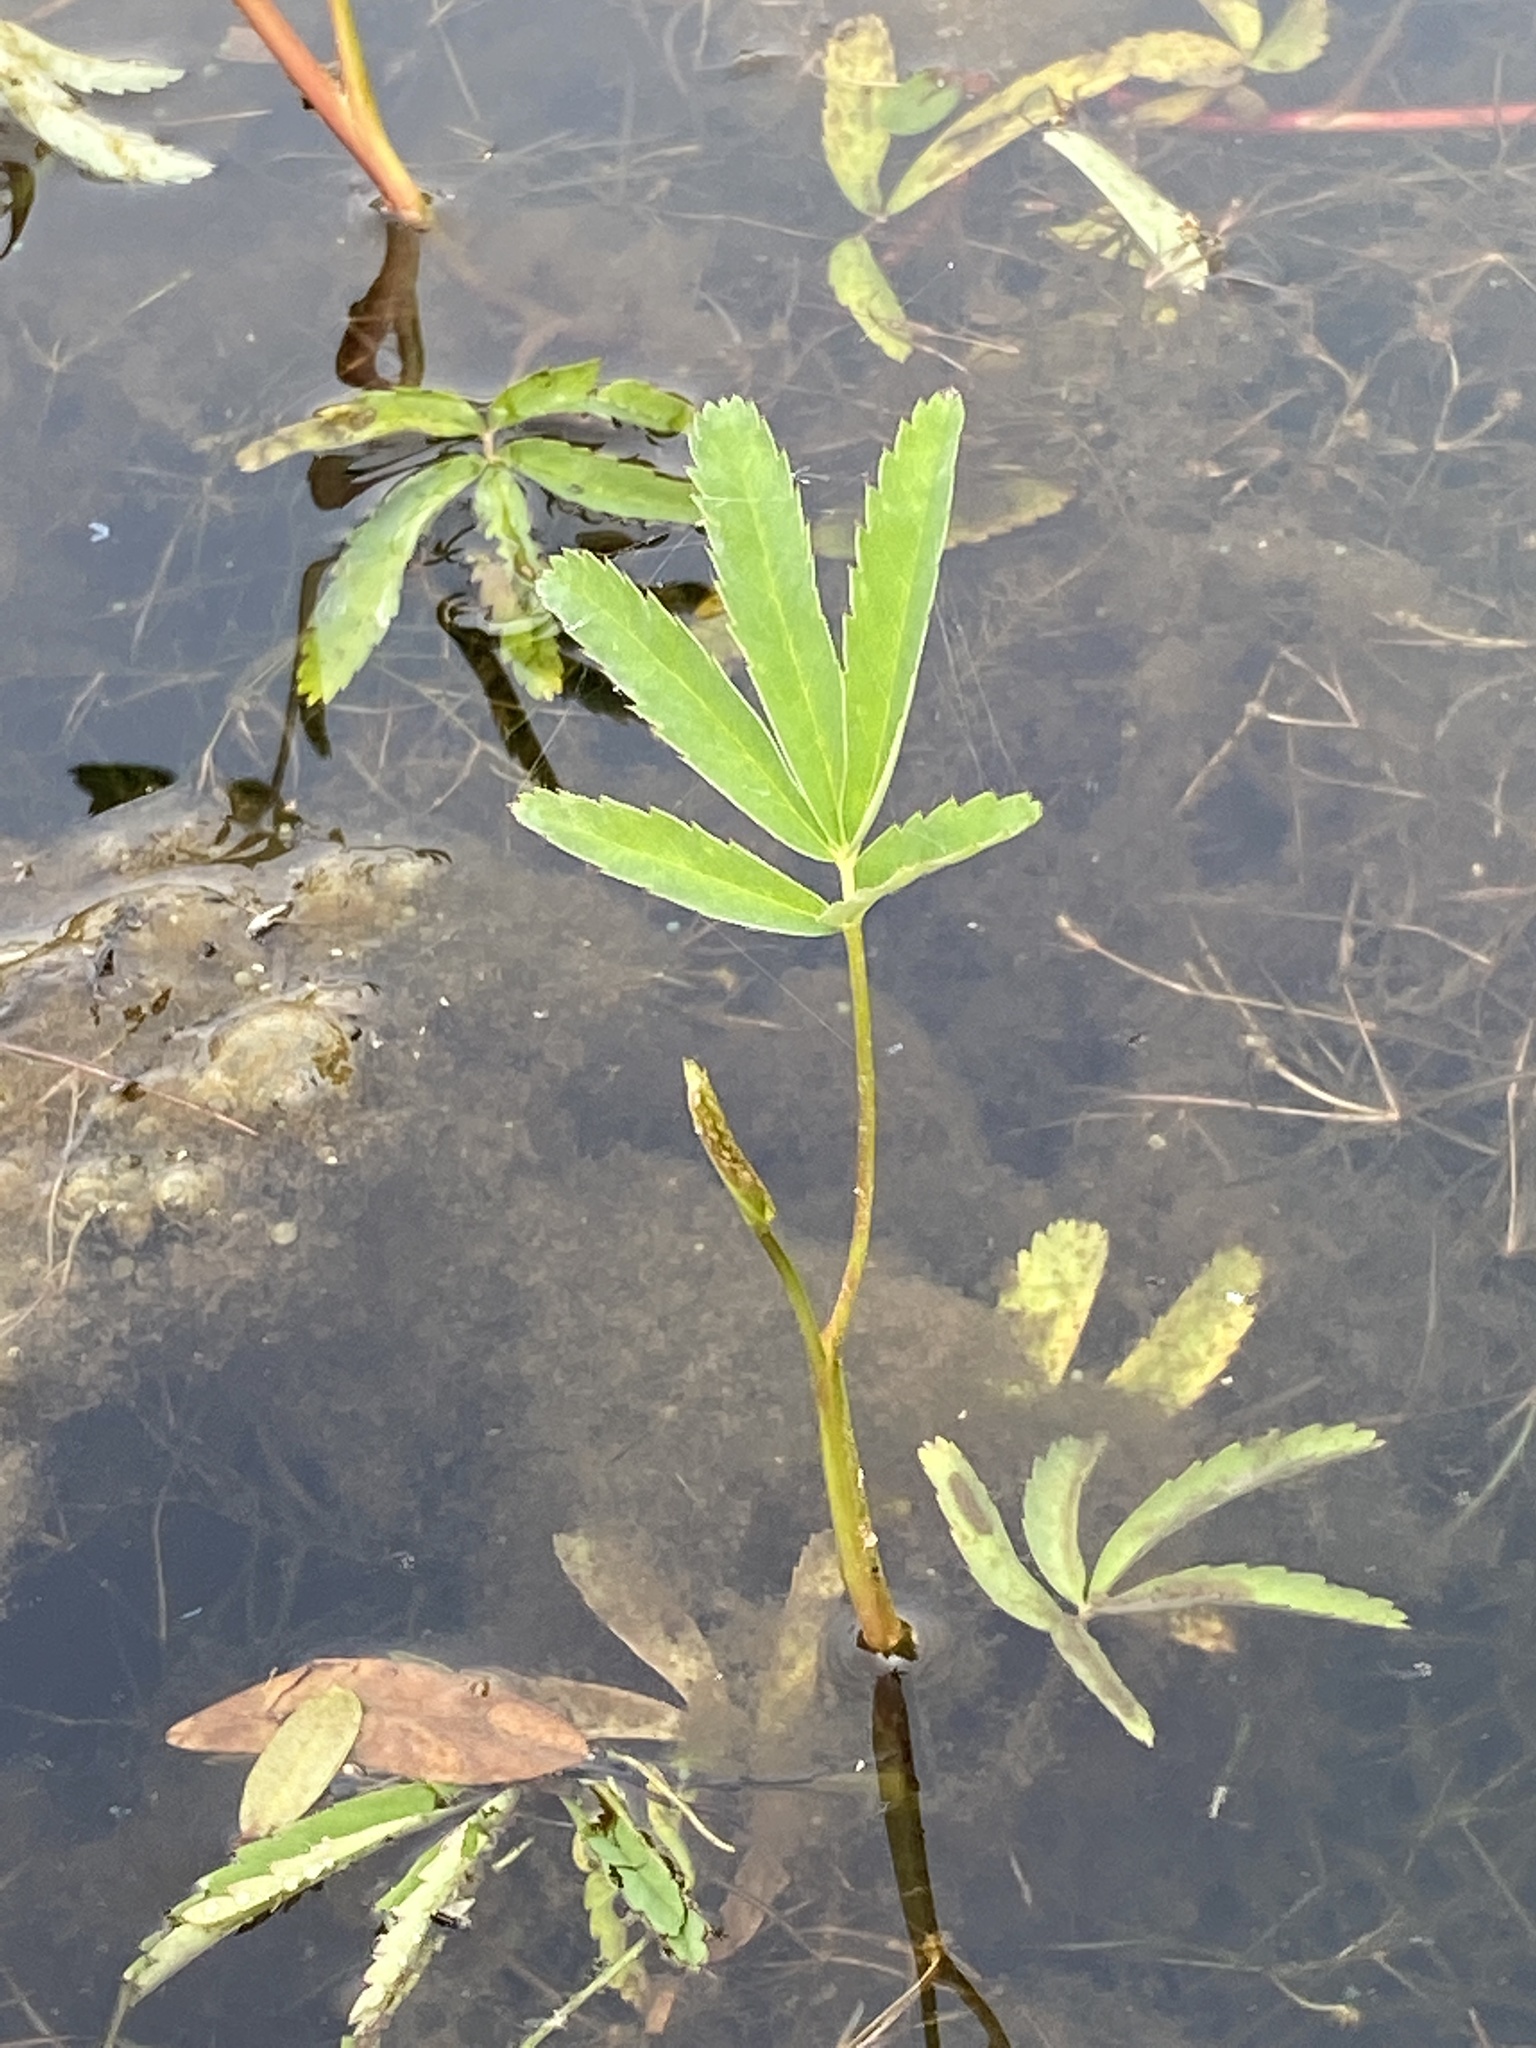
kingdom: Plantae
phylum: Tracheophyta
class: Magnoliopsida
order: Rosales
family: Rosaceae
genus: Comarum
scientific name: Comarum palustre
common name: Marsh cinquefoil
